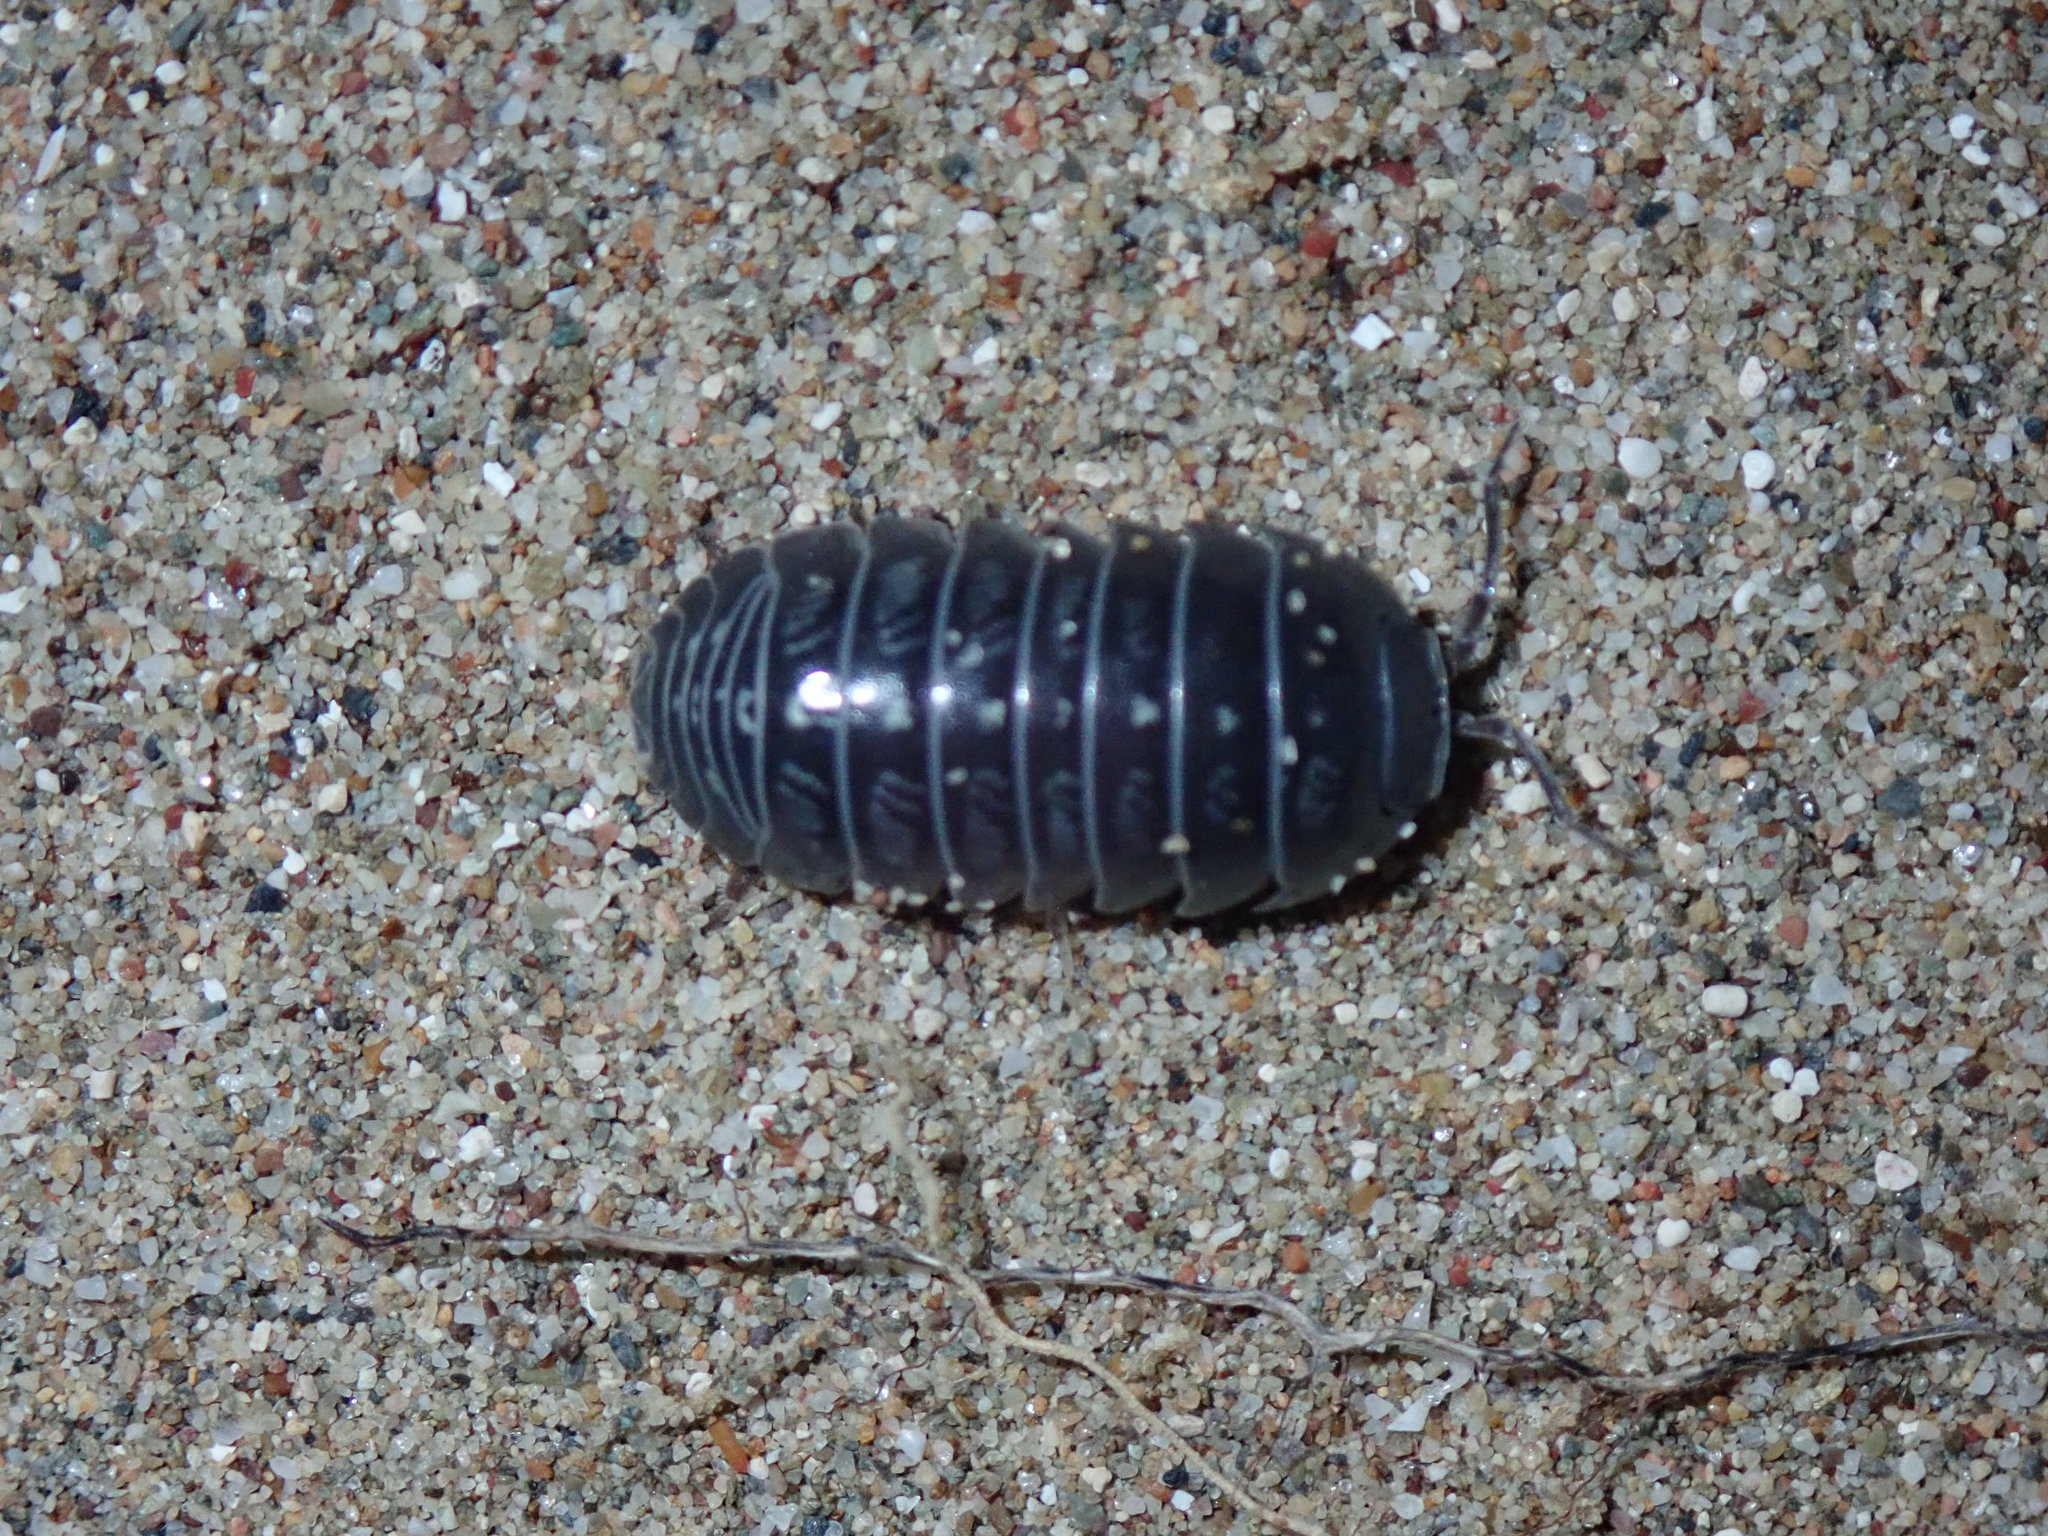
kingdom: Animalia
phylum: Arthropoda
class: Malacostraca
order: Isopoda
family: Armadillidiidae
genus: Armadillidium
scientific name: Armadillidium stagnoense
